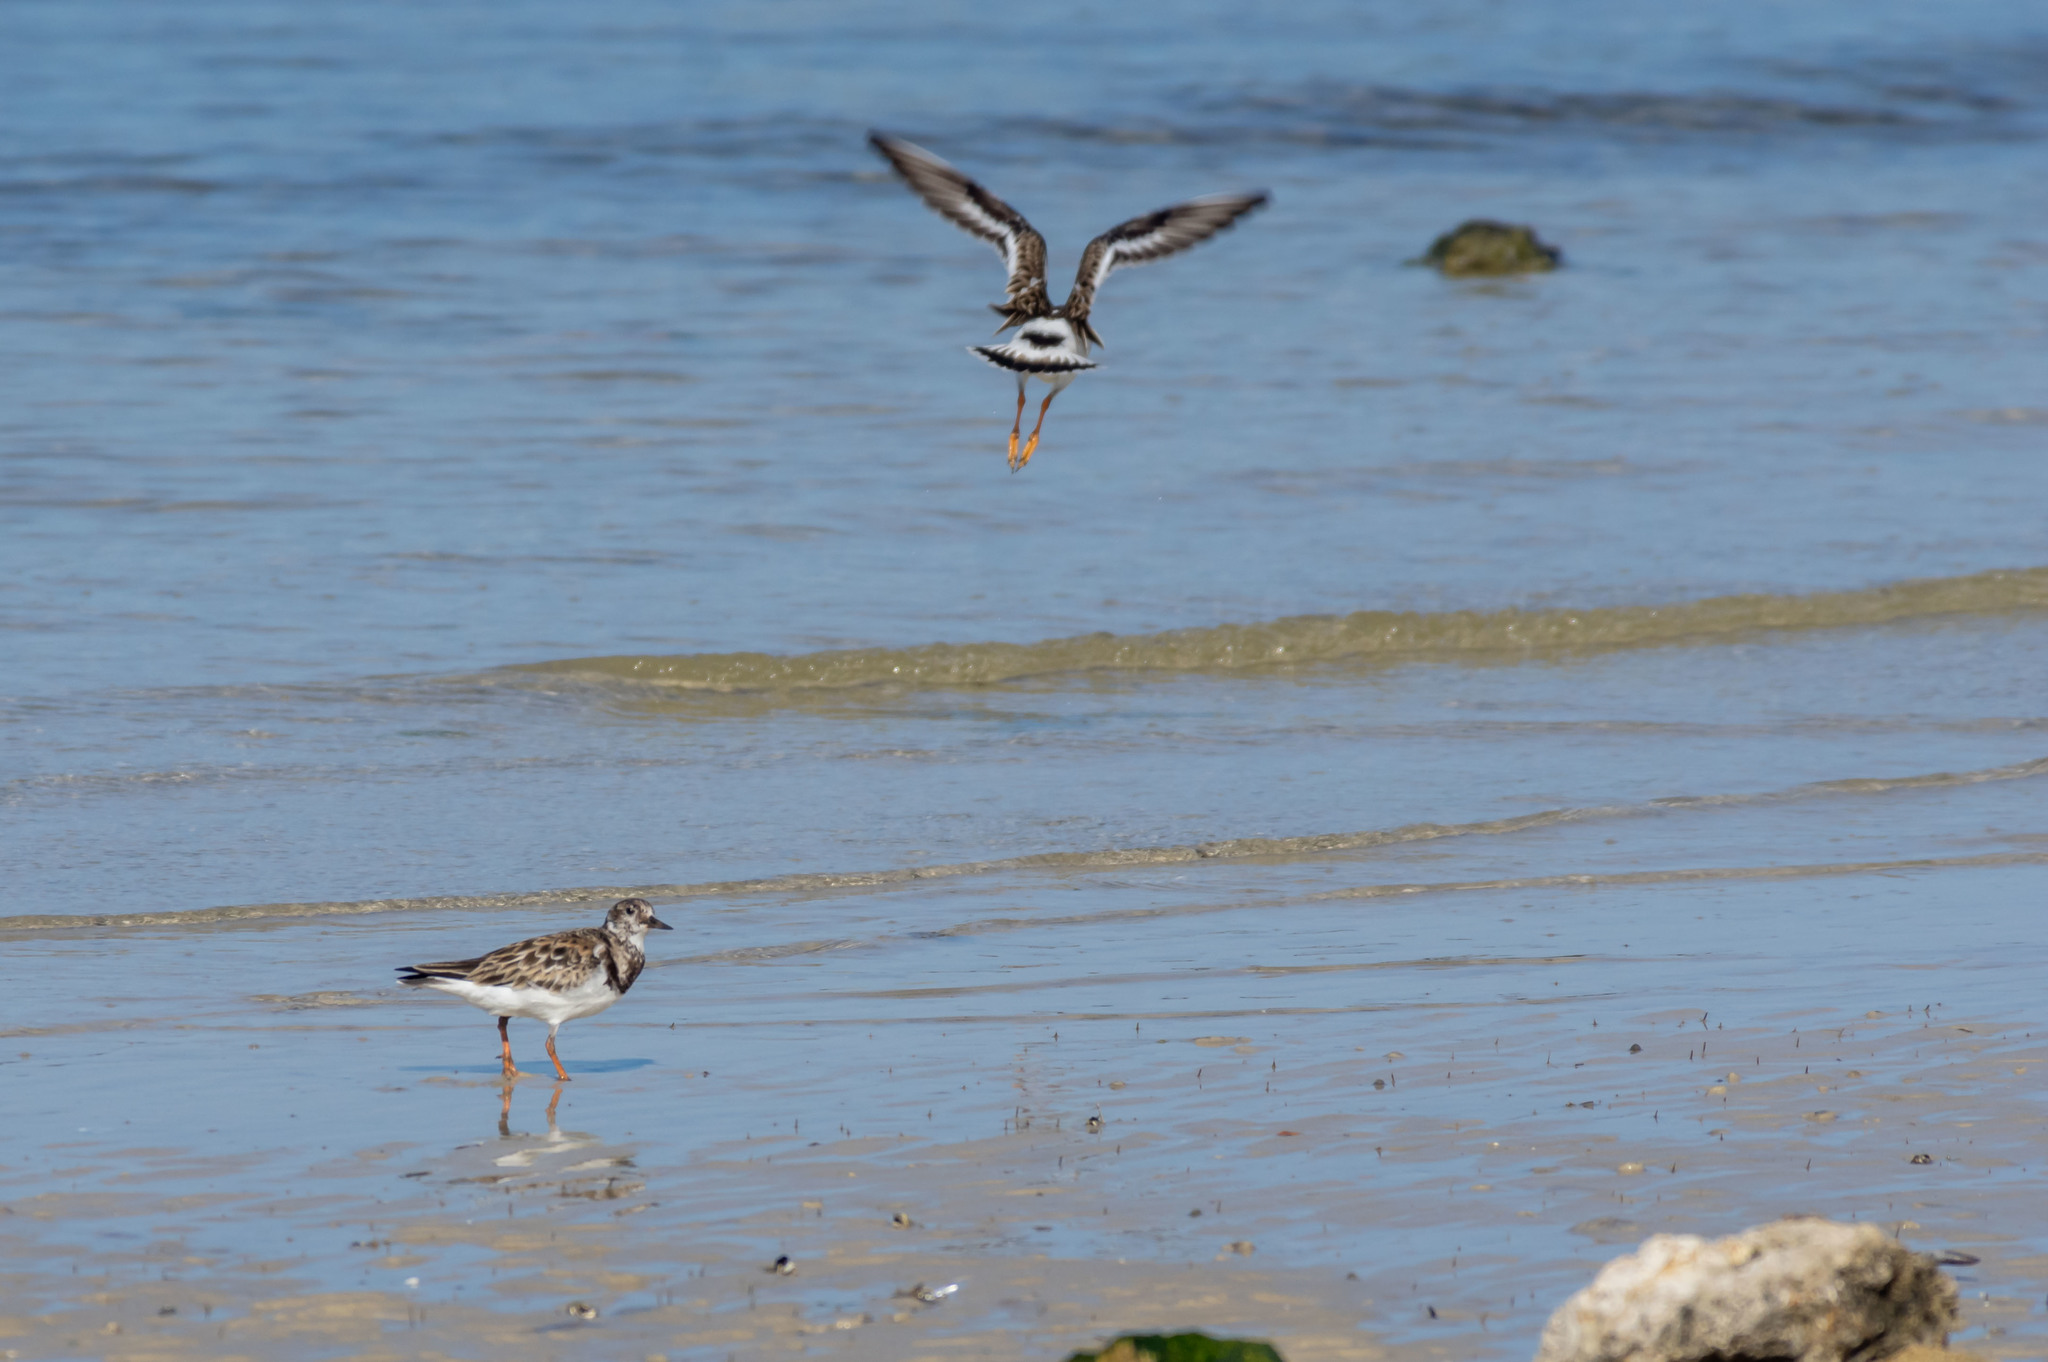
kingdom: Animalia
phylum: Chordata
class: Aves
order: Charadriiformes
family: Scolopacidae
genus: Arenaria
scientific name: Arenaria interpres
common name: Ruddy turnstone
